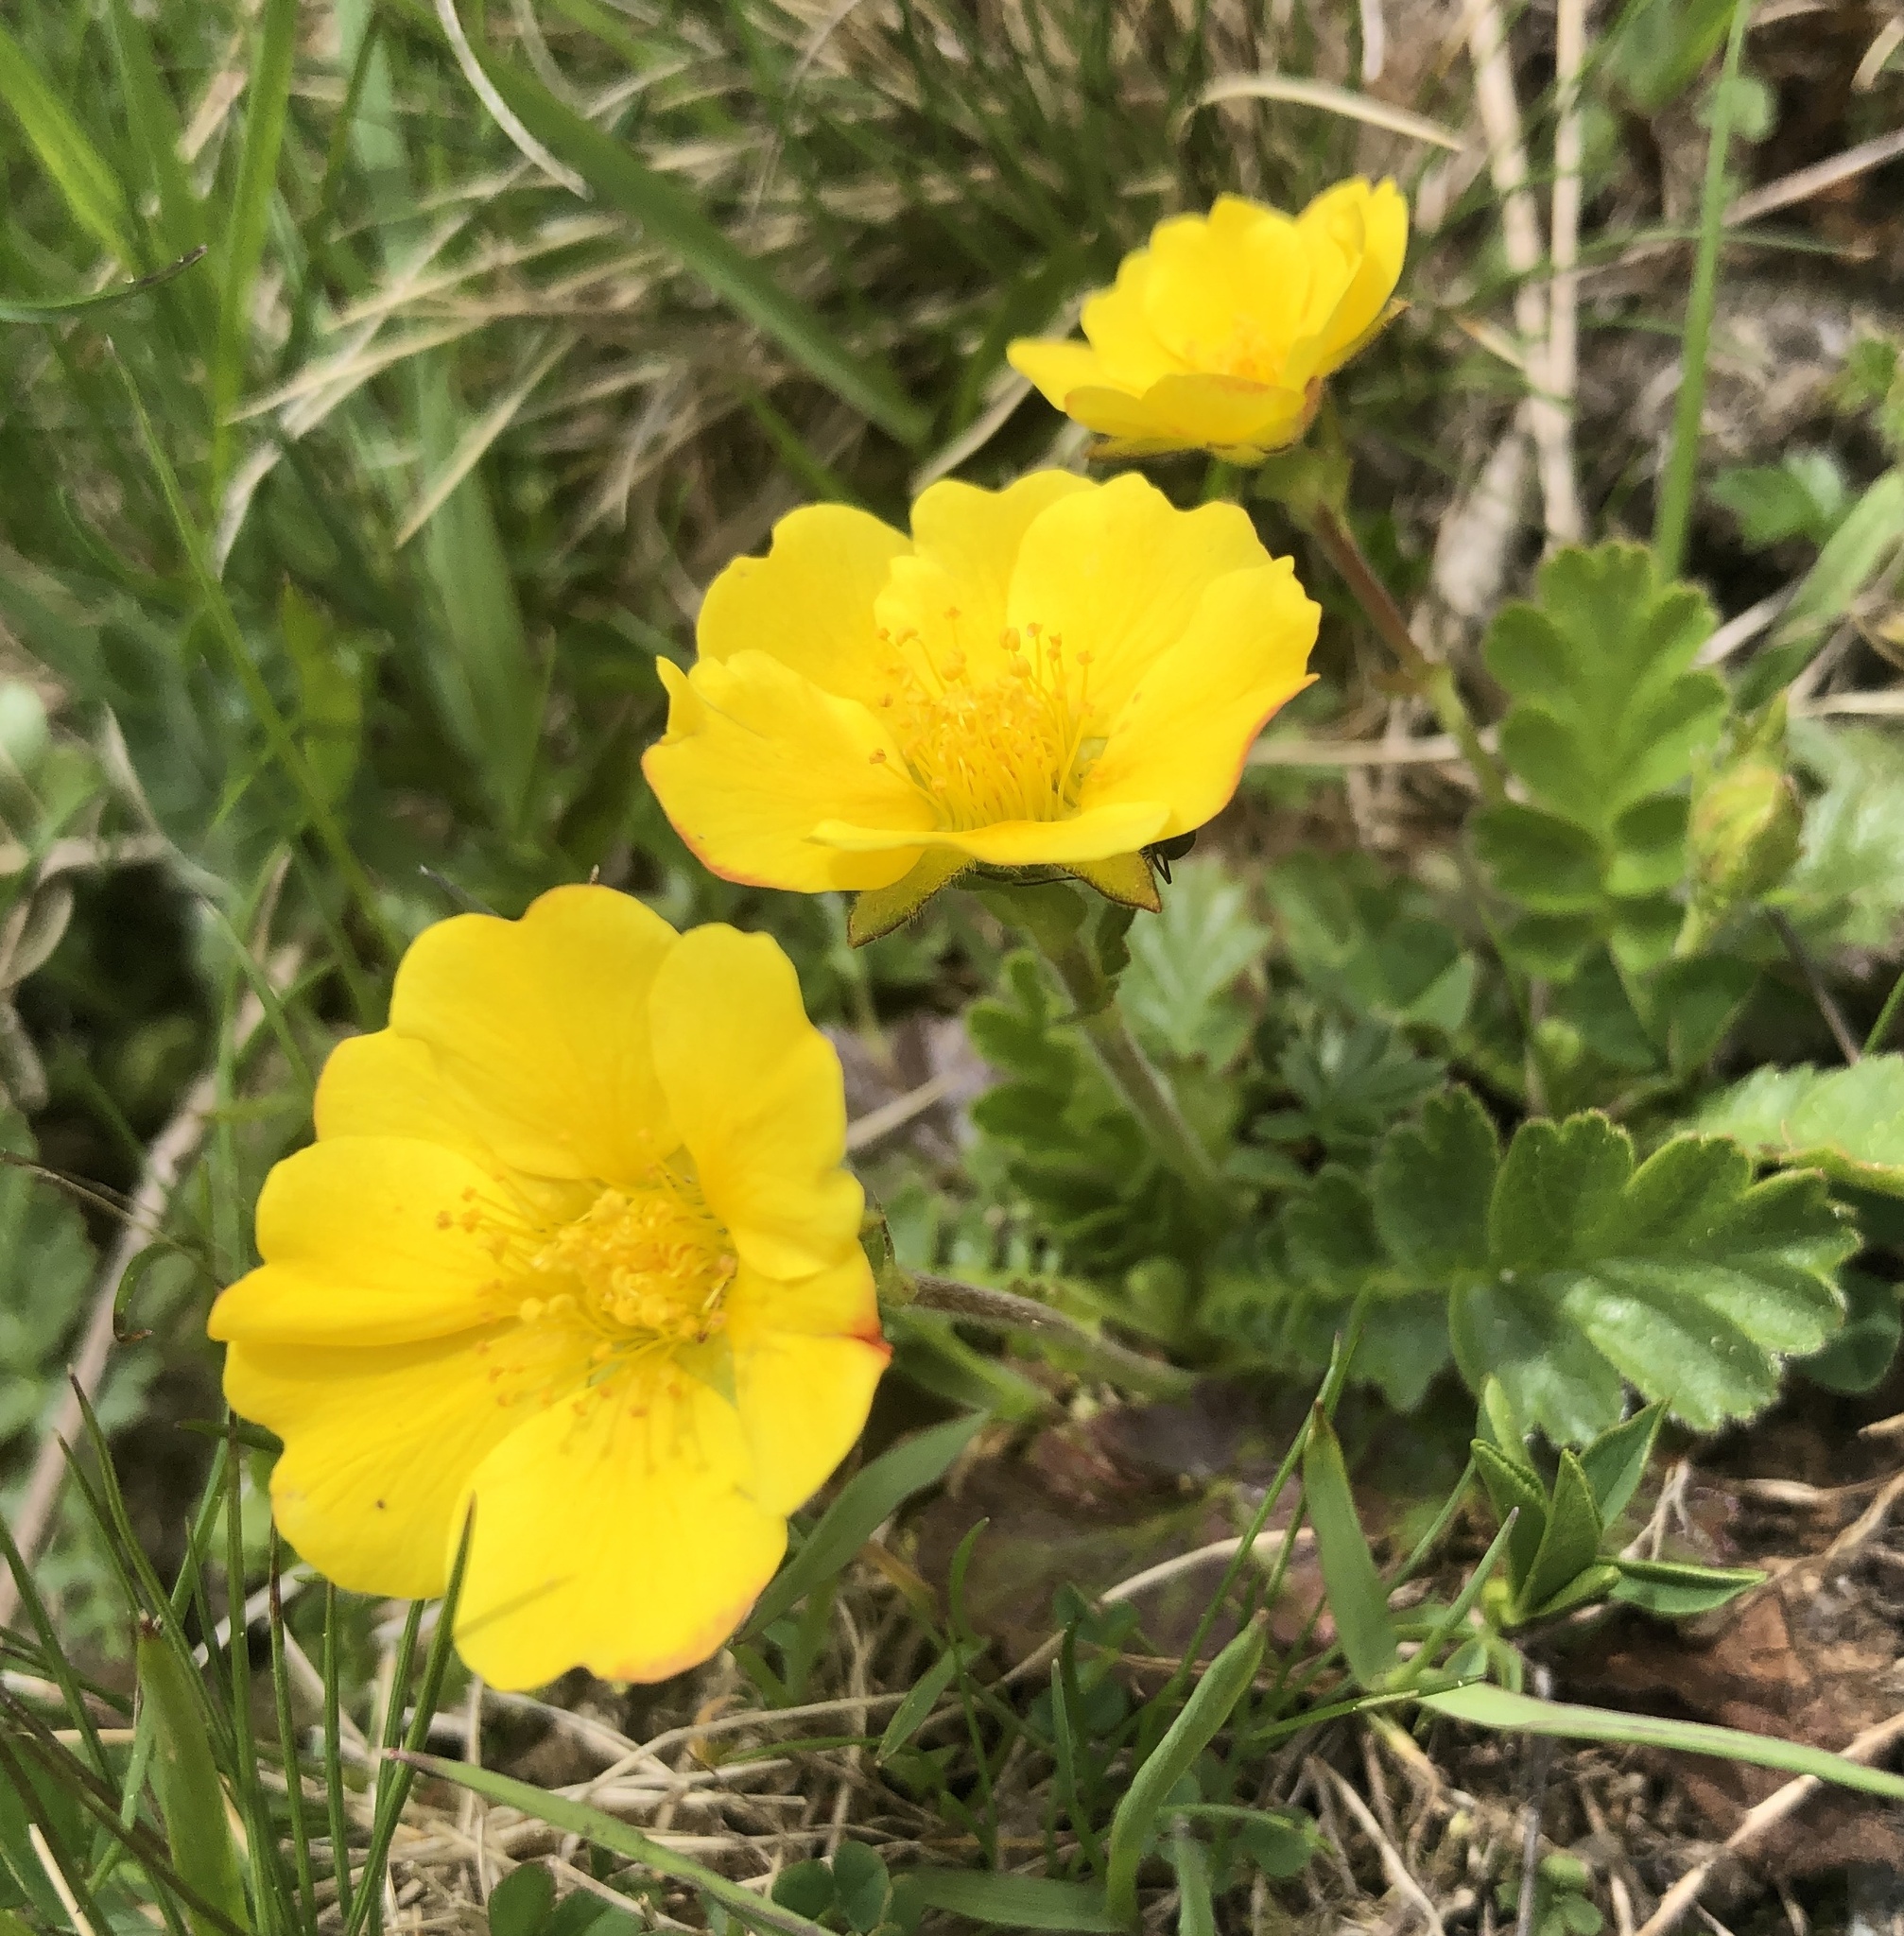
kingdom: Plantae
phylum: Tracheophyta
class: Magnoliopsida
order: Rosales
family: Rosaceae
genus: Geum
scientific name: Geum reptans
